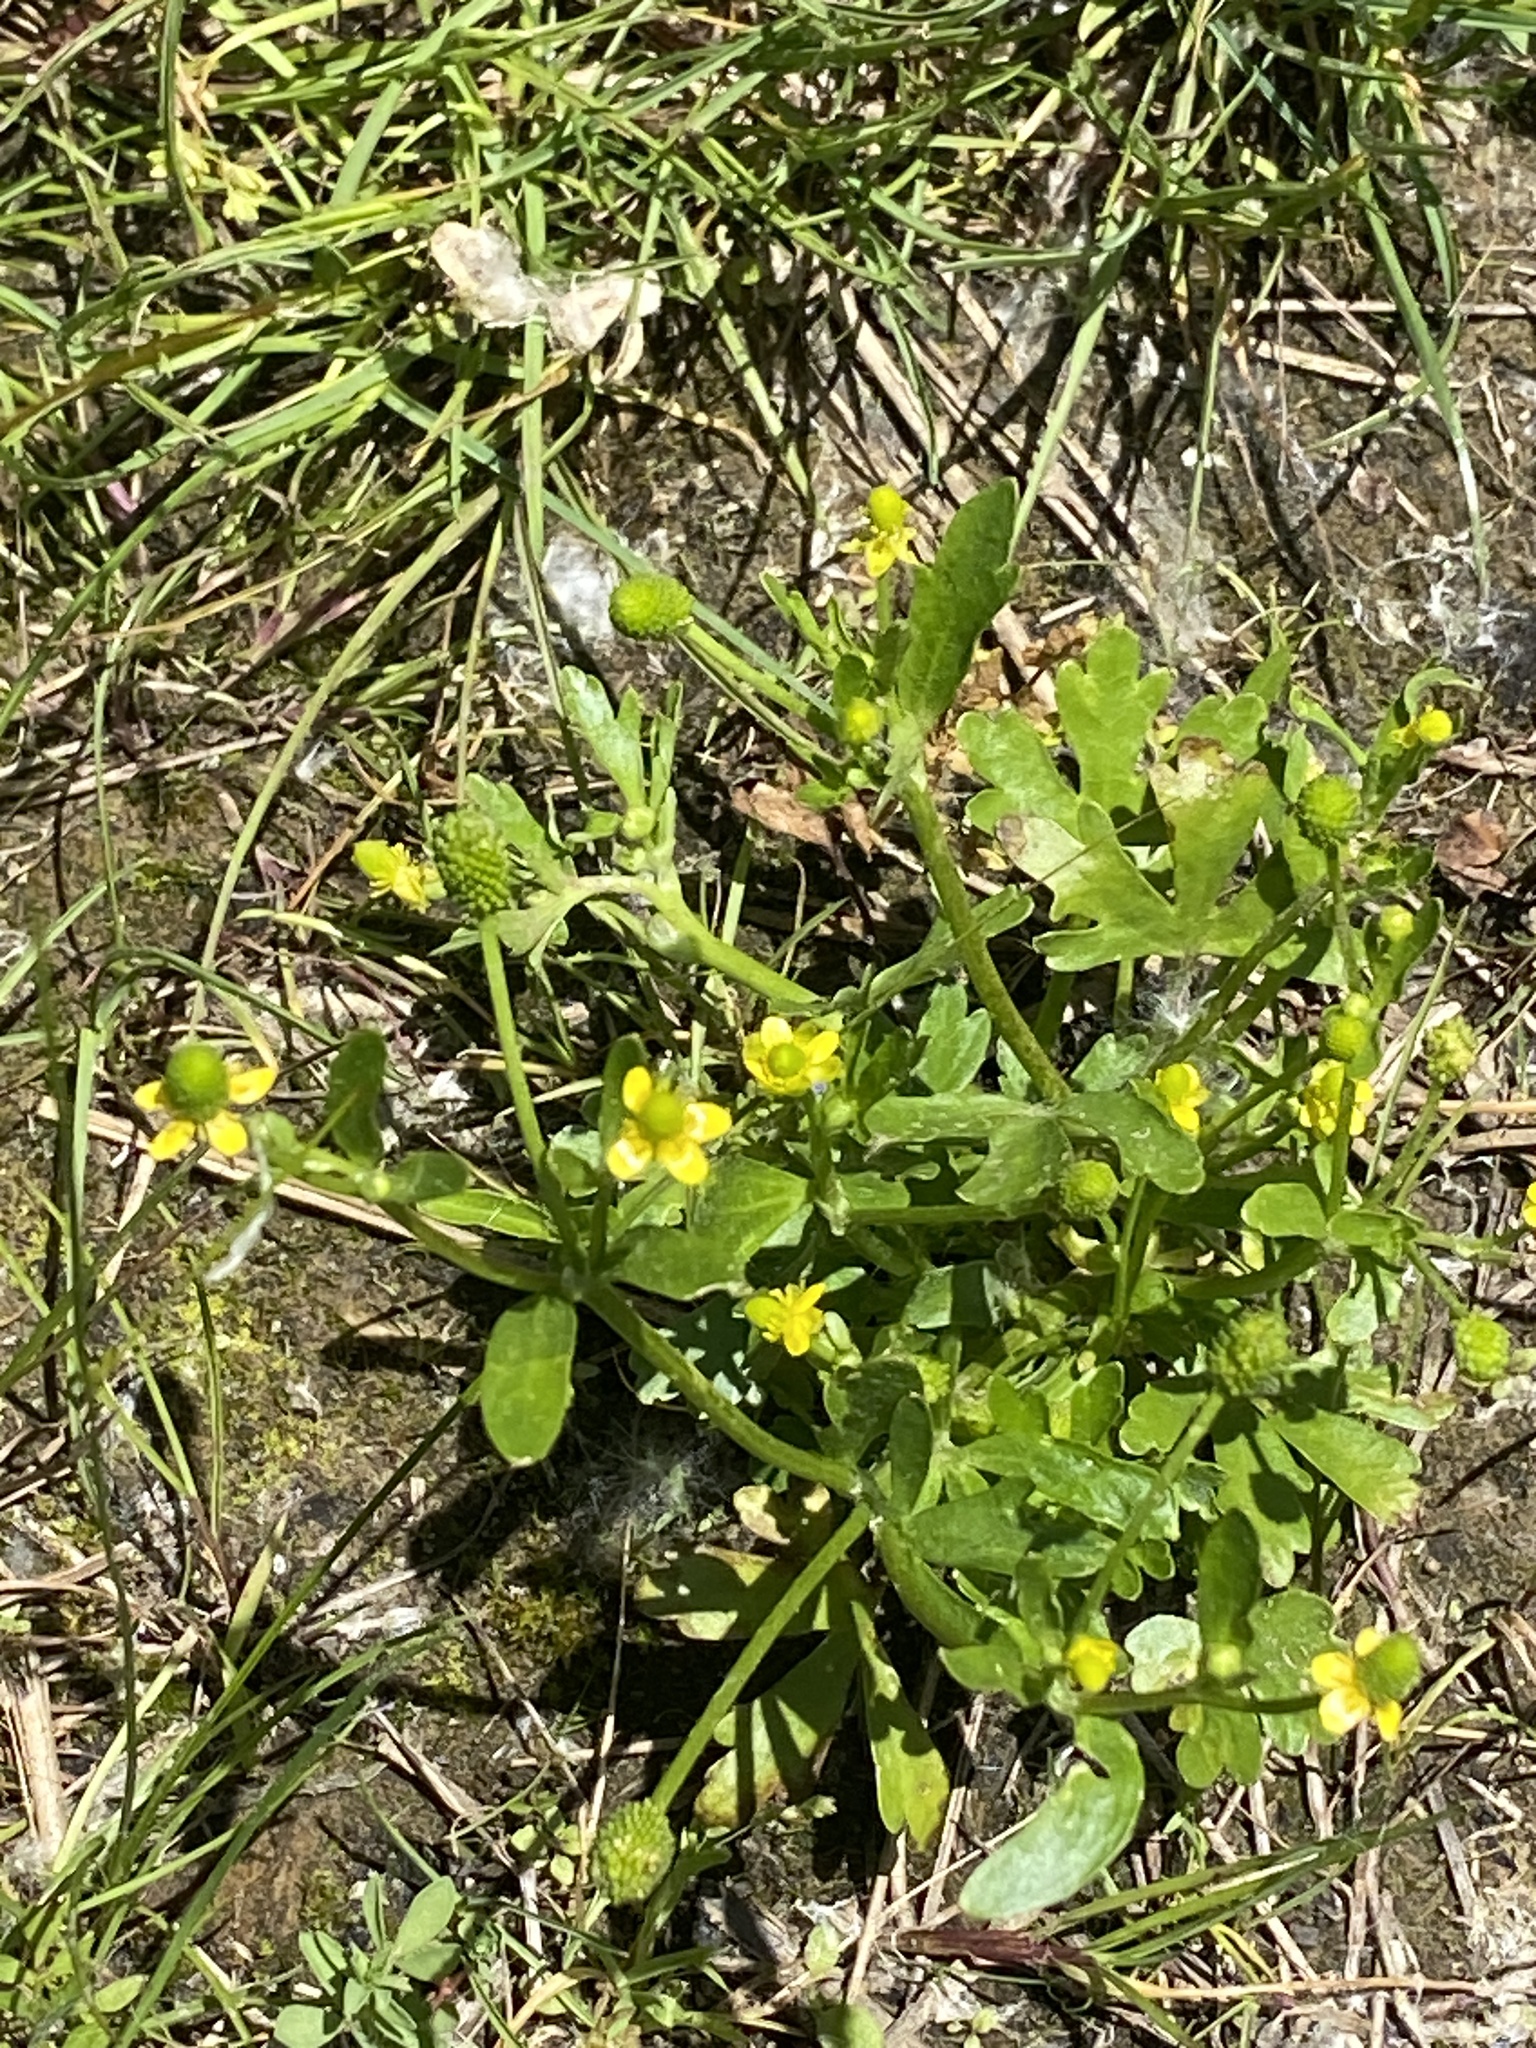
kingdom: Plantae
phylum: Tracheophyta
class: Magnoliopsida
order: Ranunculales
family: Ranunculaceae
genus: Ranunculus
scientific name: Ranunculus sceleratus
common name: Celery-leaved buttercup
